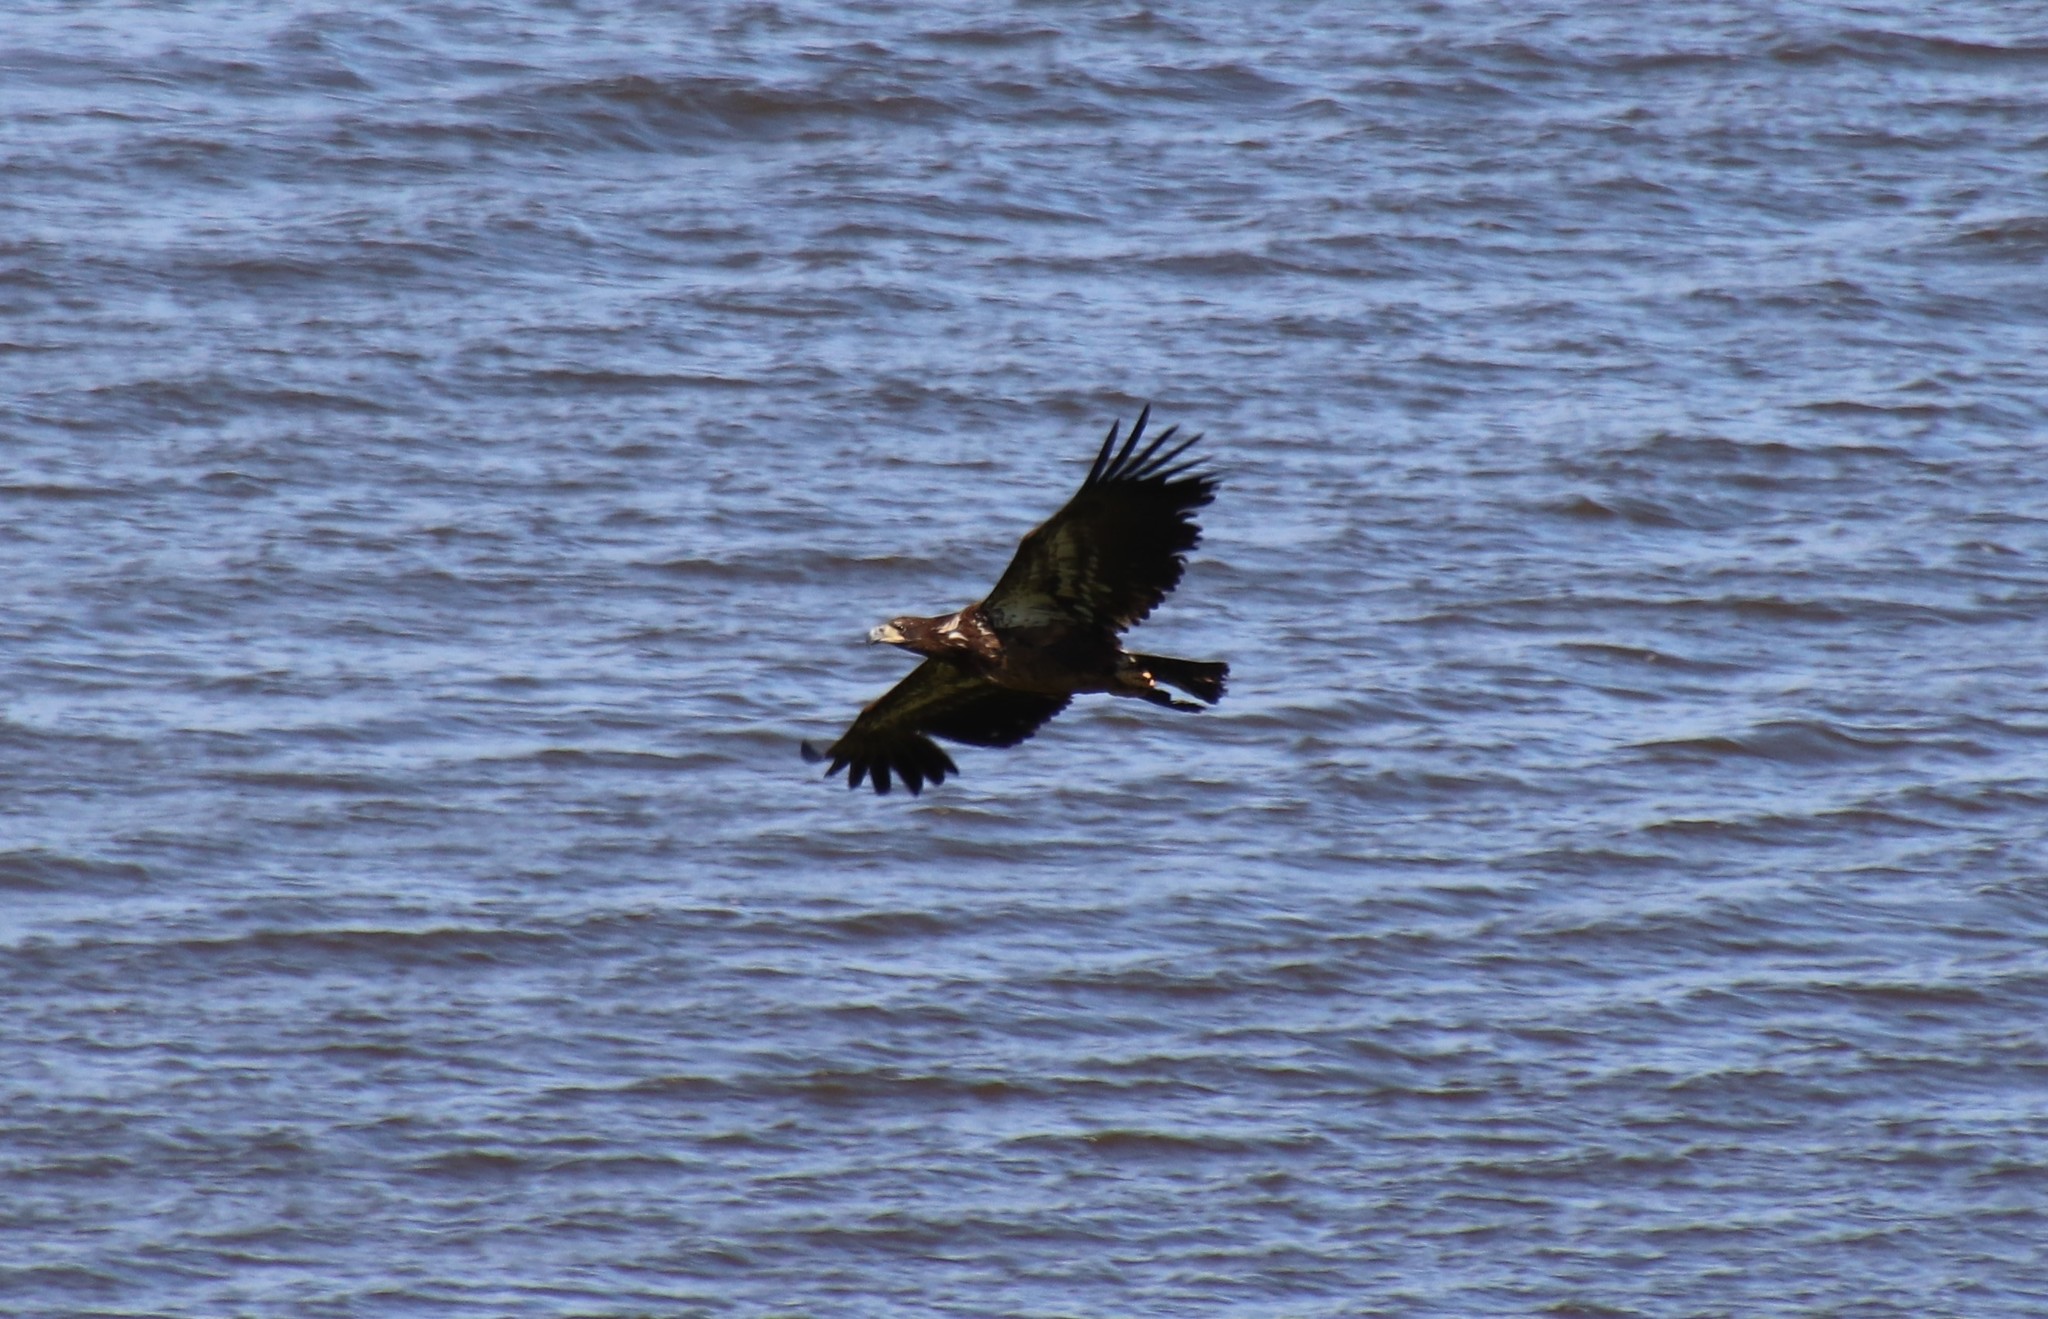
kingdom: Animalia
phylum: Chordata
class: Aves
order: Accipitriformes
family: Accipitridae
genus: Haliaeetus
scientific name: Haliaeetus leucocephalus
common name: Bald eagle
